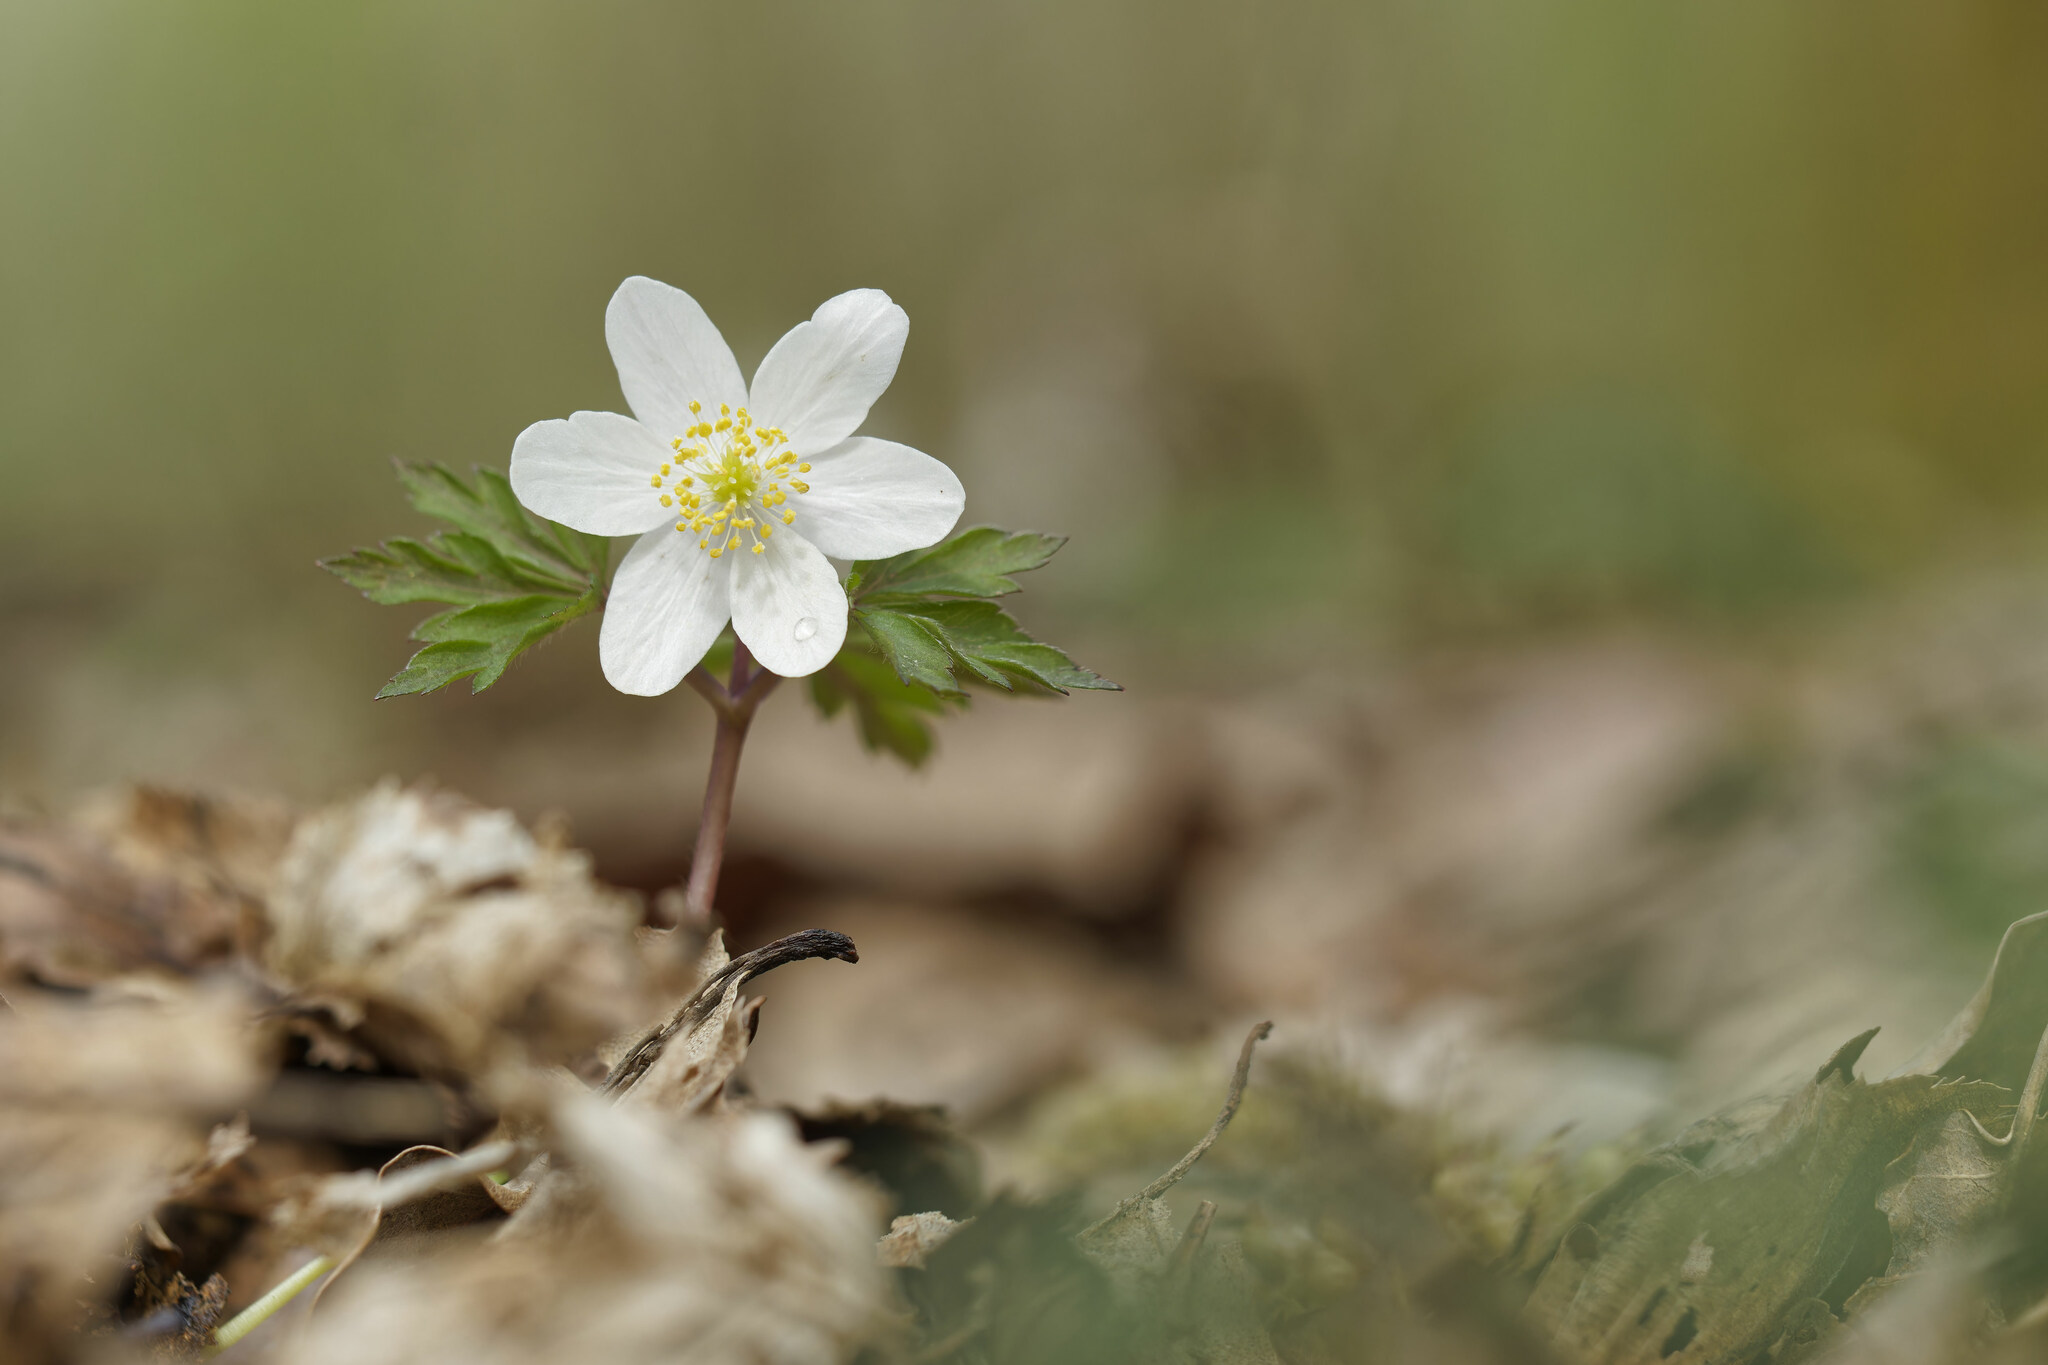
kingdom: Plantae
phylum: Tracheophyta
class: Magnoliopsida
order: Ranunculales
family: Ranunculaceae
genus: Anemone
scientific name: Anemone nemorosa
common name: Wood anemone
